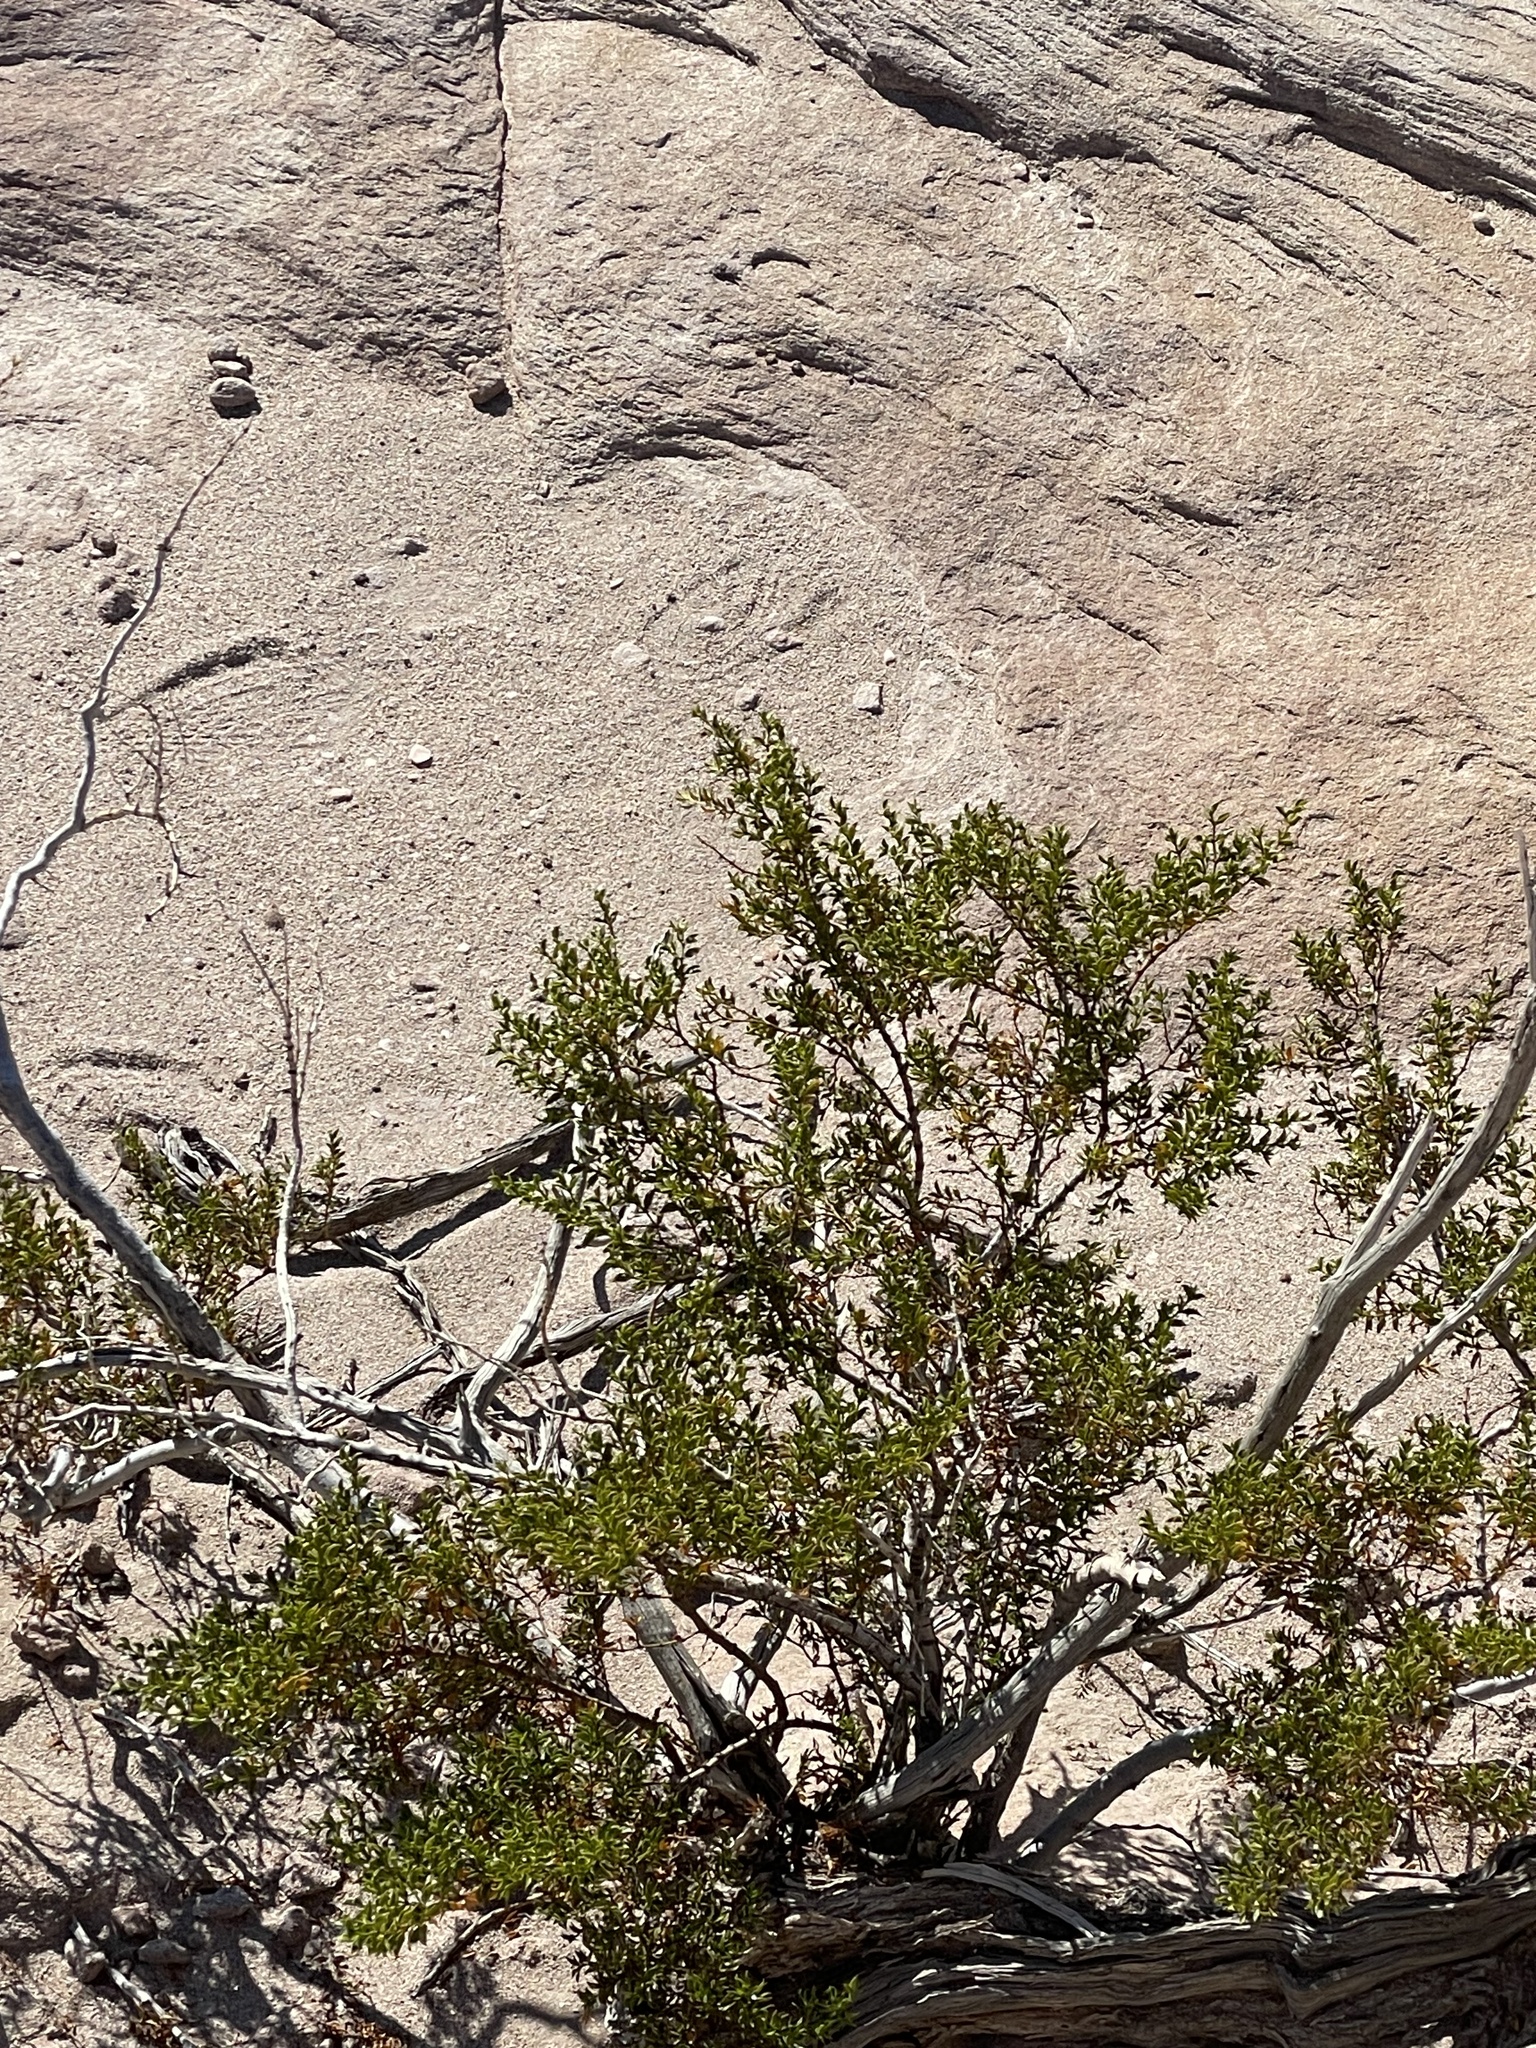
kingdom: Plantae
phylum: Tracheophyta
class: Magnoliopsida
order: Zygophyllales
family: Zygophyllaceae
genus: Larrea
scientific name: Larrea tridentata
